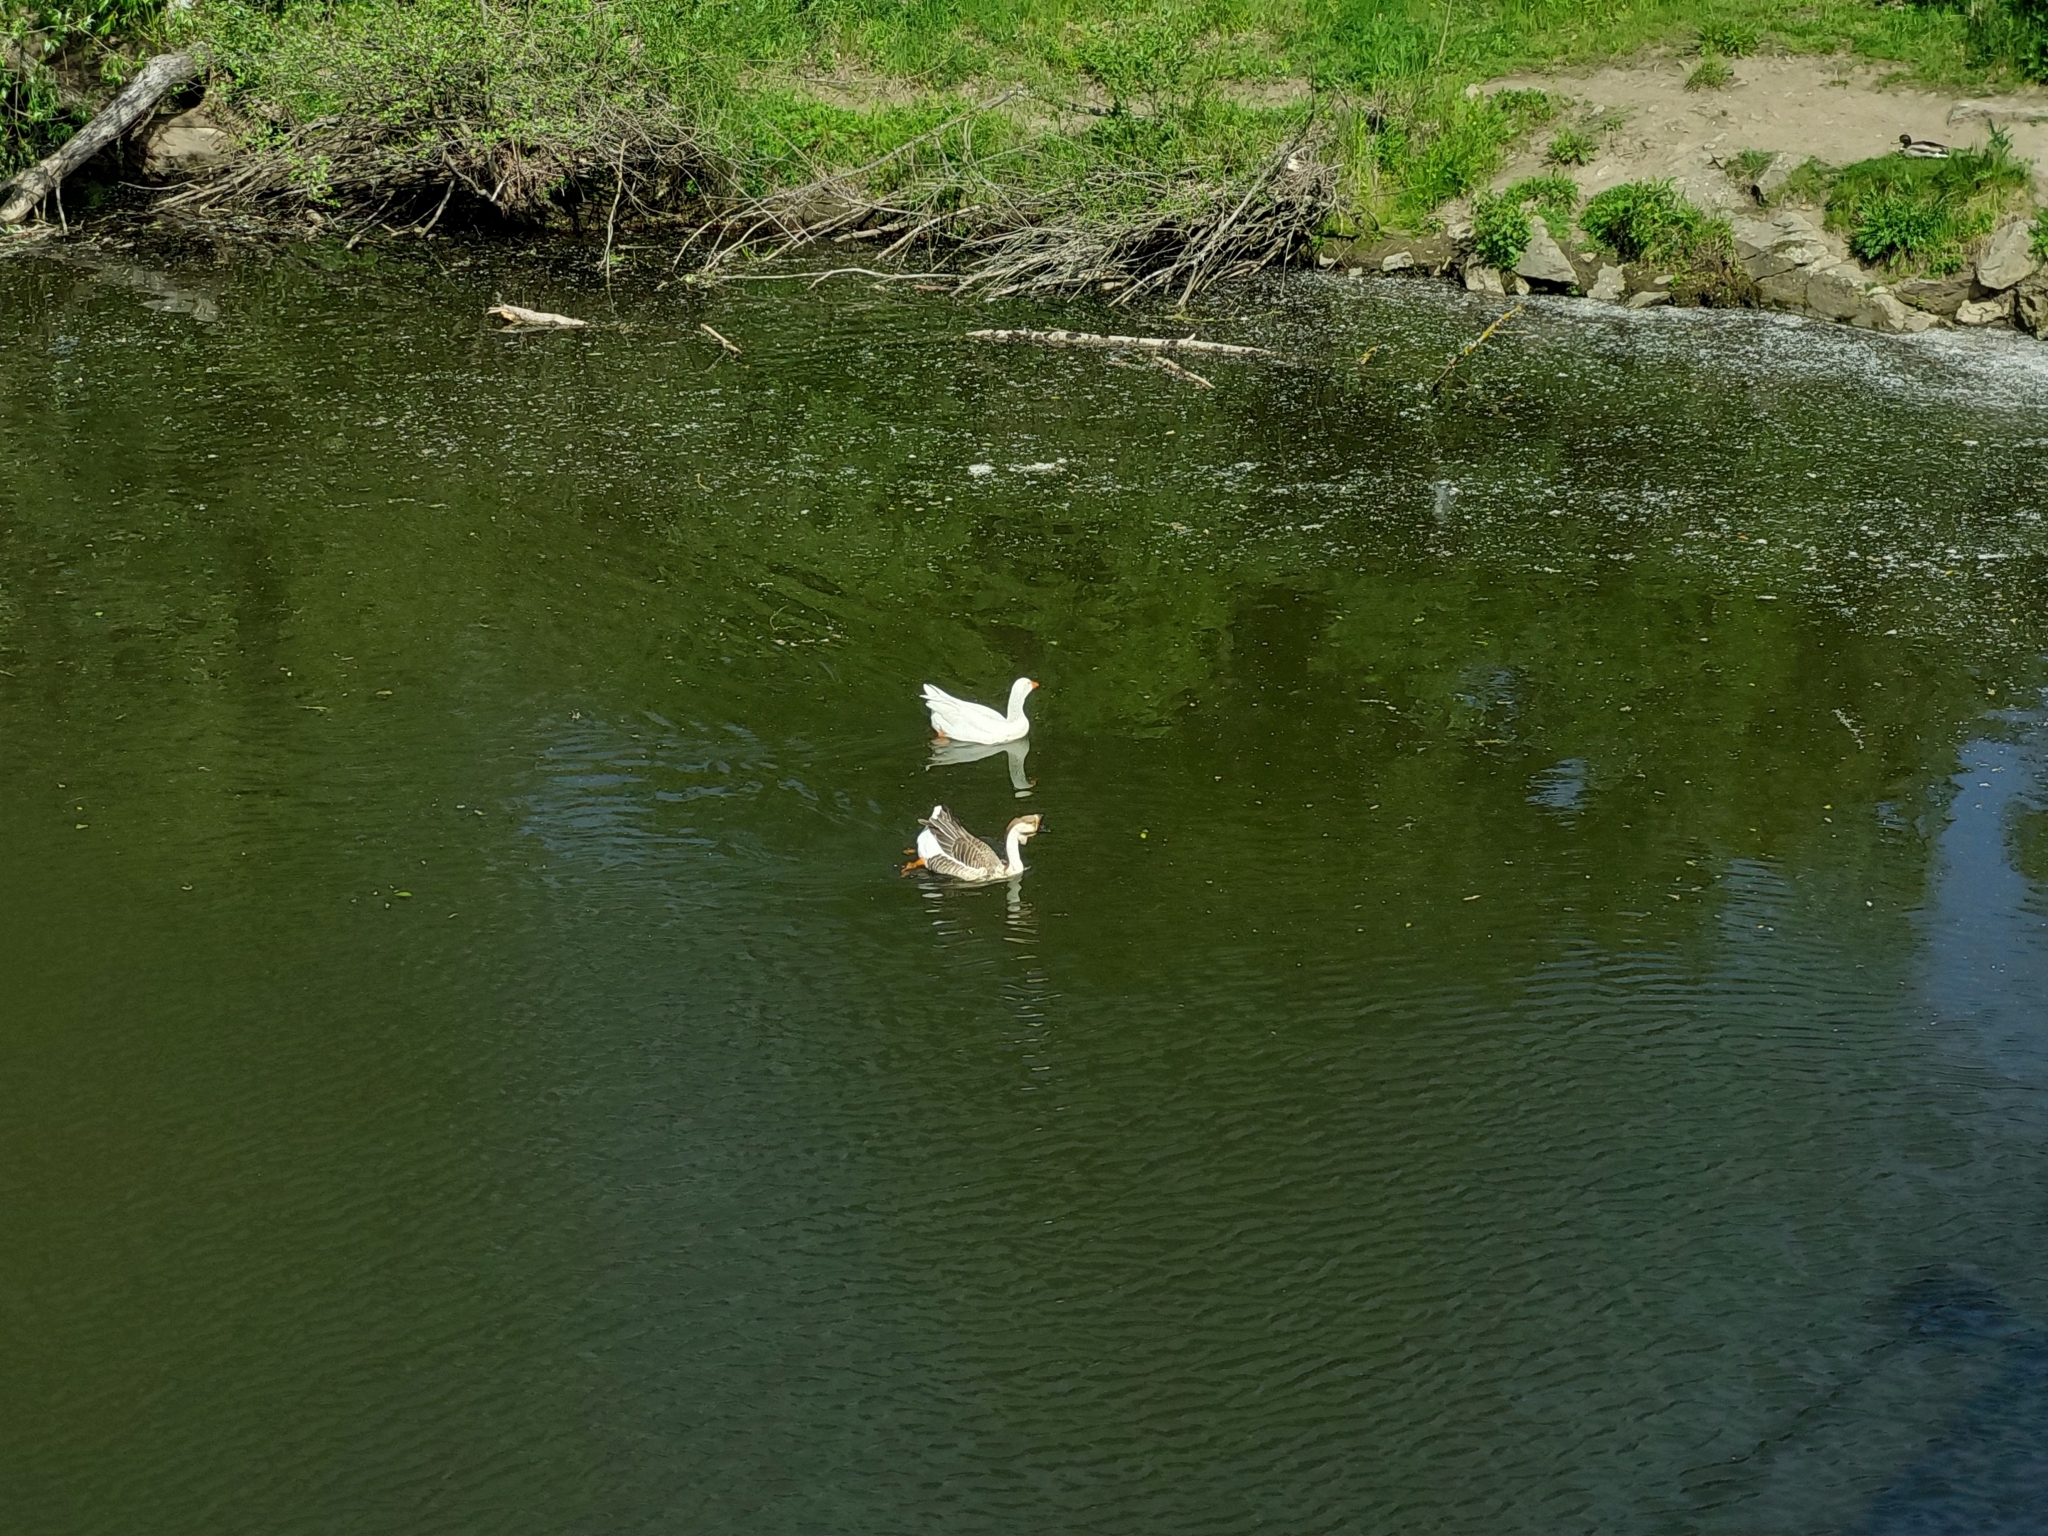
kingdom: Animalia
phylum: Chordata
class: Aves
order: Anseriformes
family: Anatidae
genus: Anser
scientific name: Anser cygnoides
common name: Swan goose
